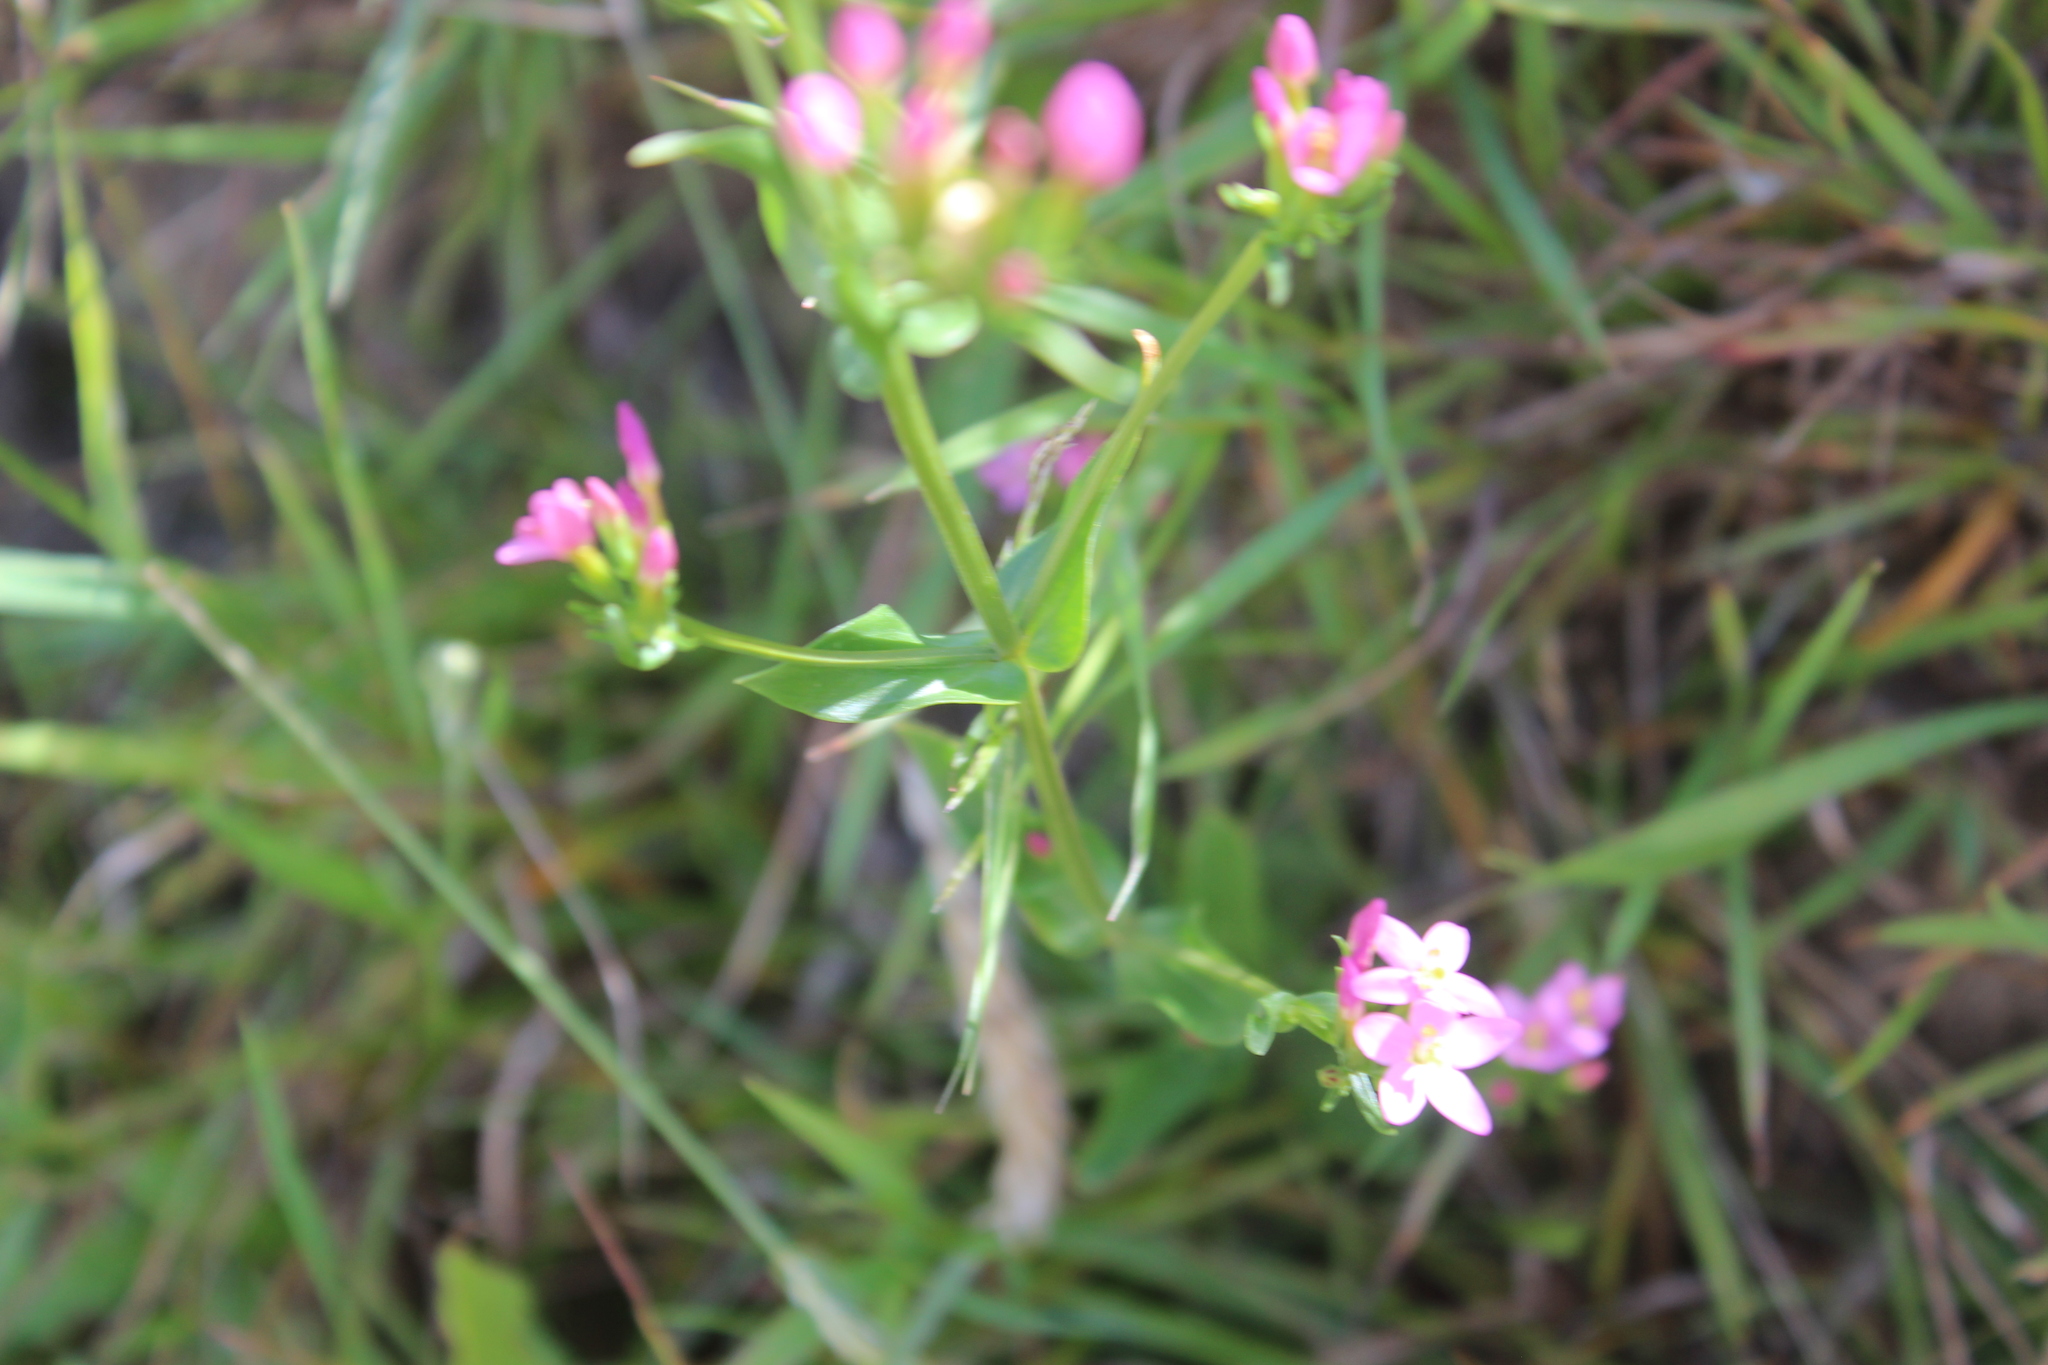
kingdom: Plantae
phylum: Tracheophyta
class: Magnoliopsida
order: Gentianales
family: Gentianaceae
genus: Centaurium
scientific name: Centaurium erythraea
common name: Common centaury
